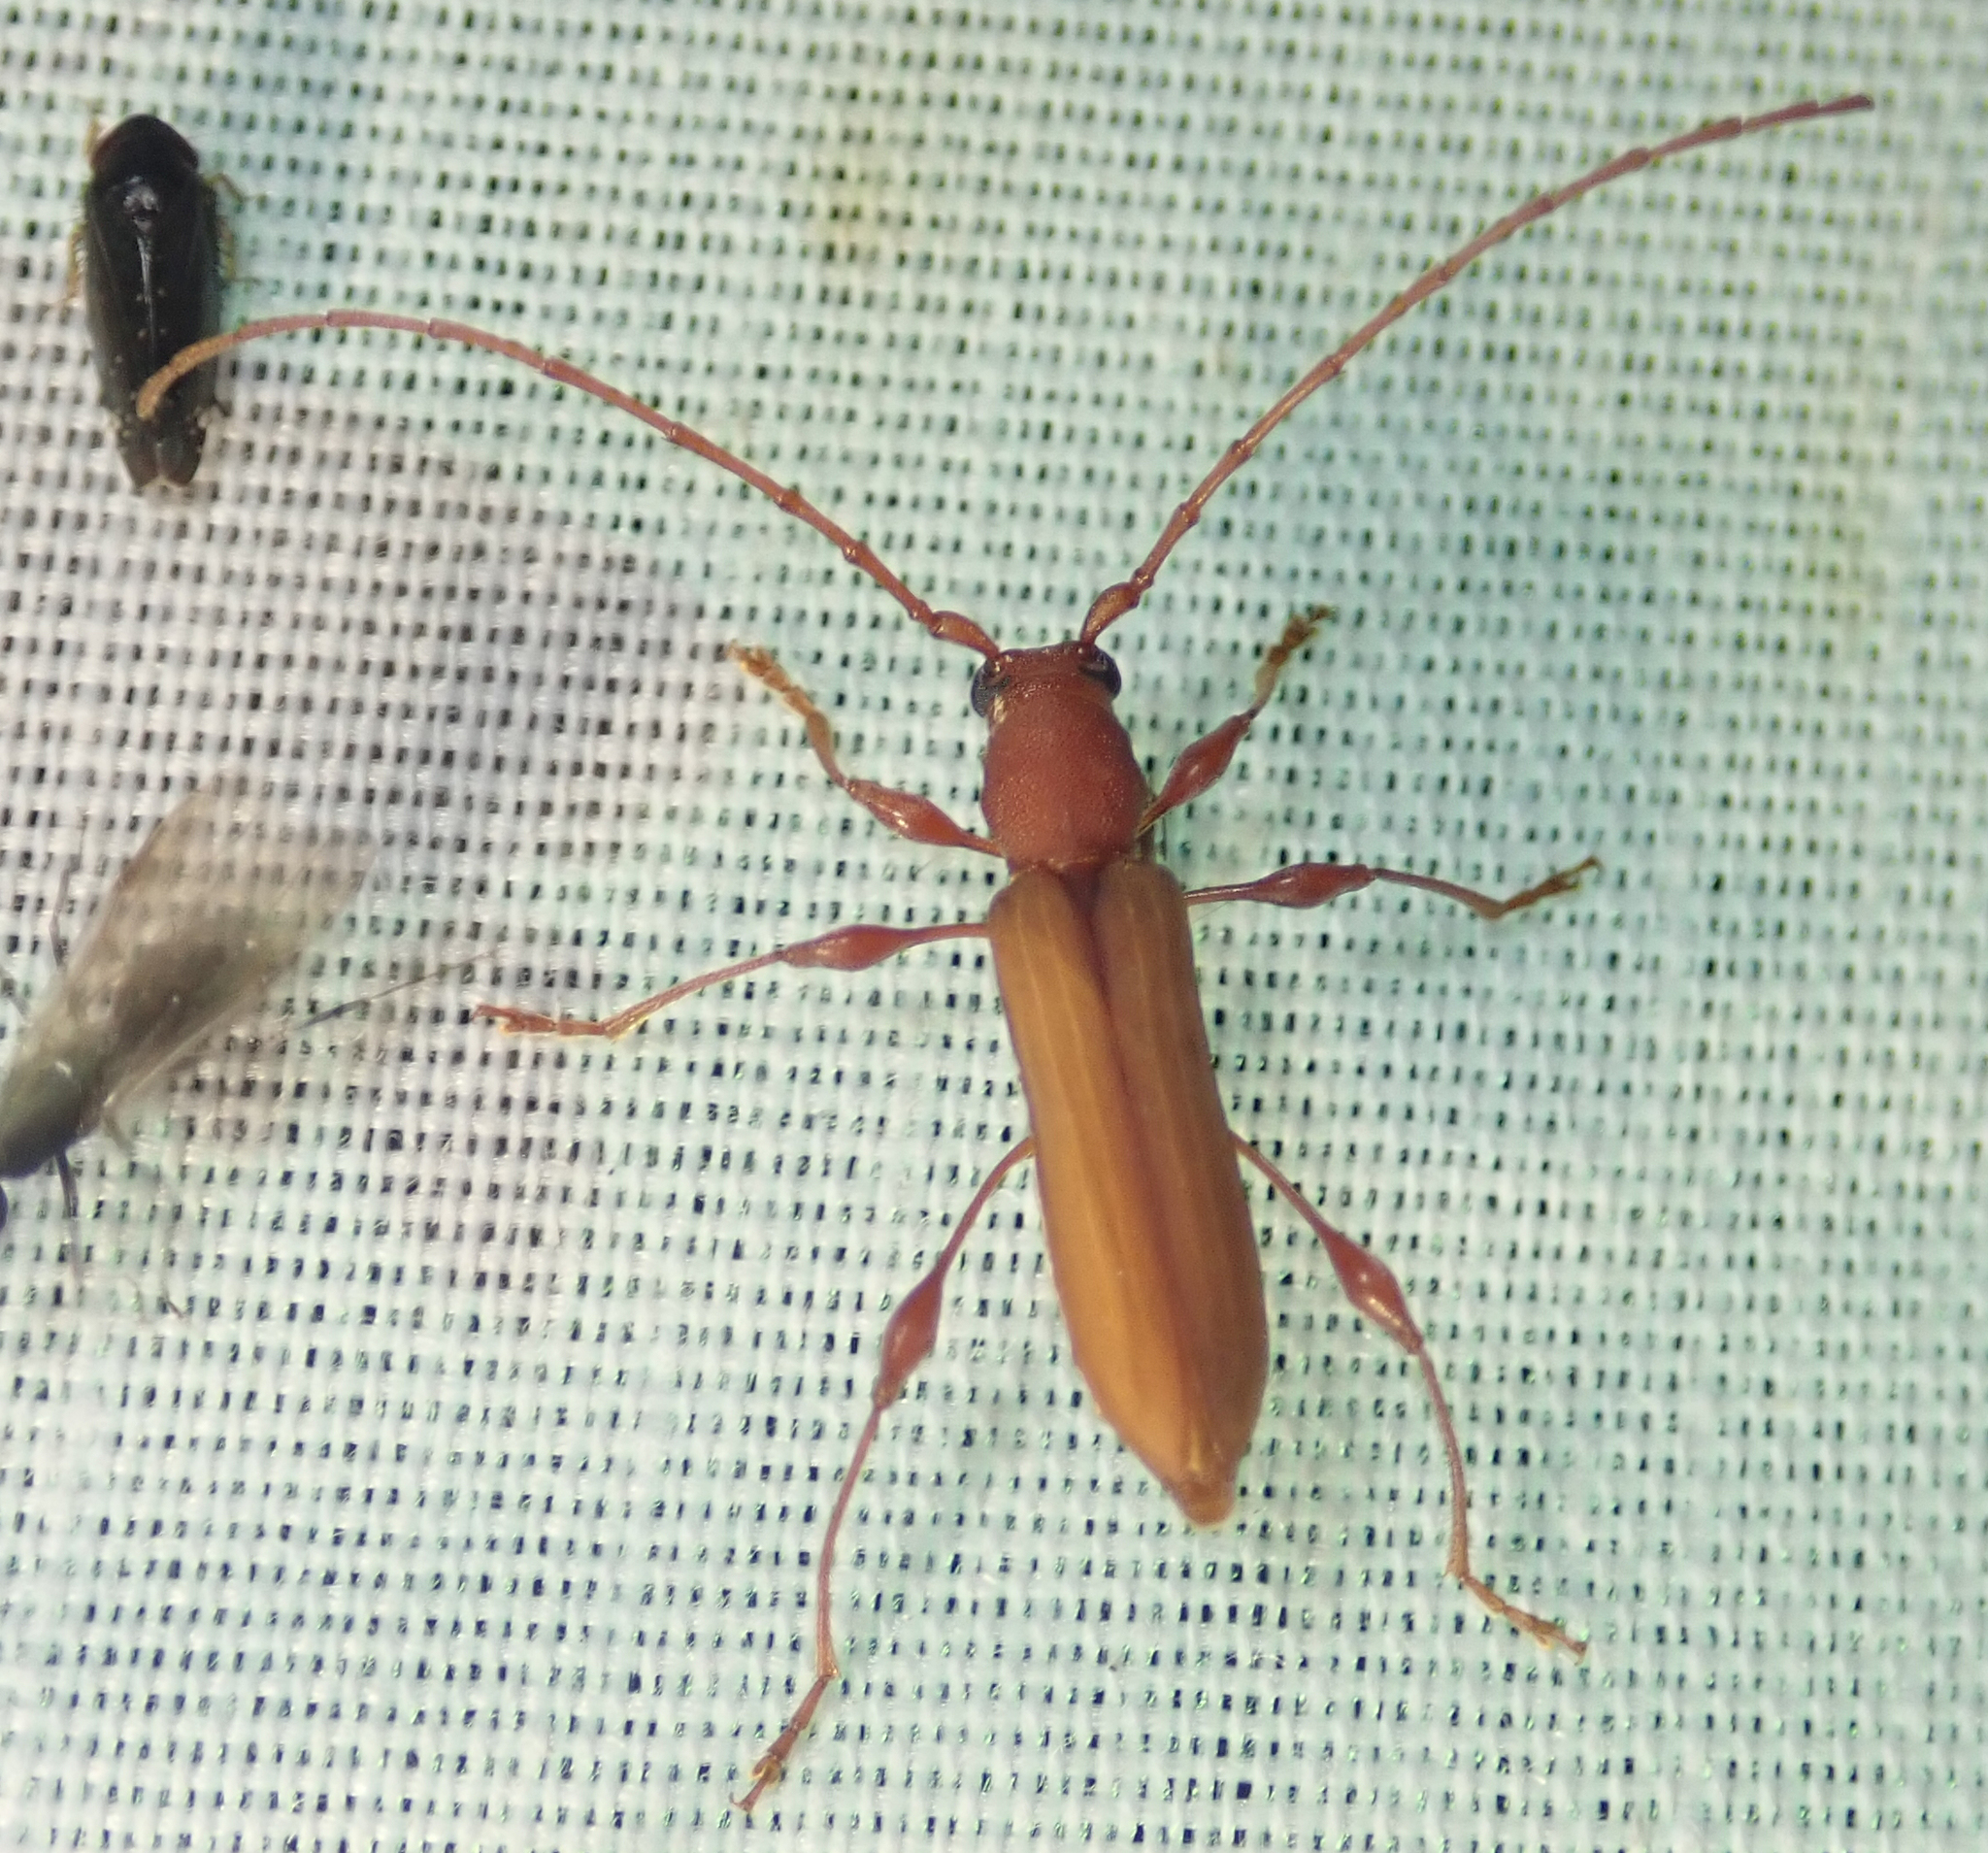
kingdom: Animalia
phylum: Arthropoda
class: Insecta
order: Coleoptera
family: Cerambycidae
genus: Cordylomera
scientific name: Cordylomera karschi
